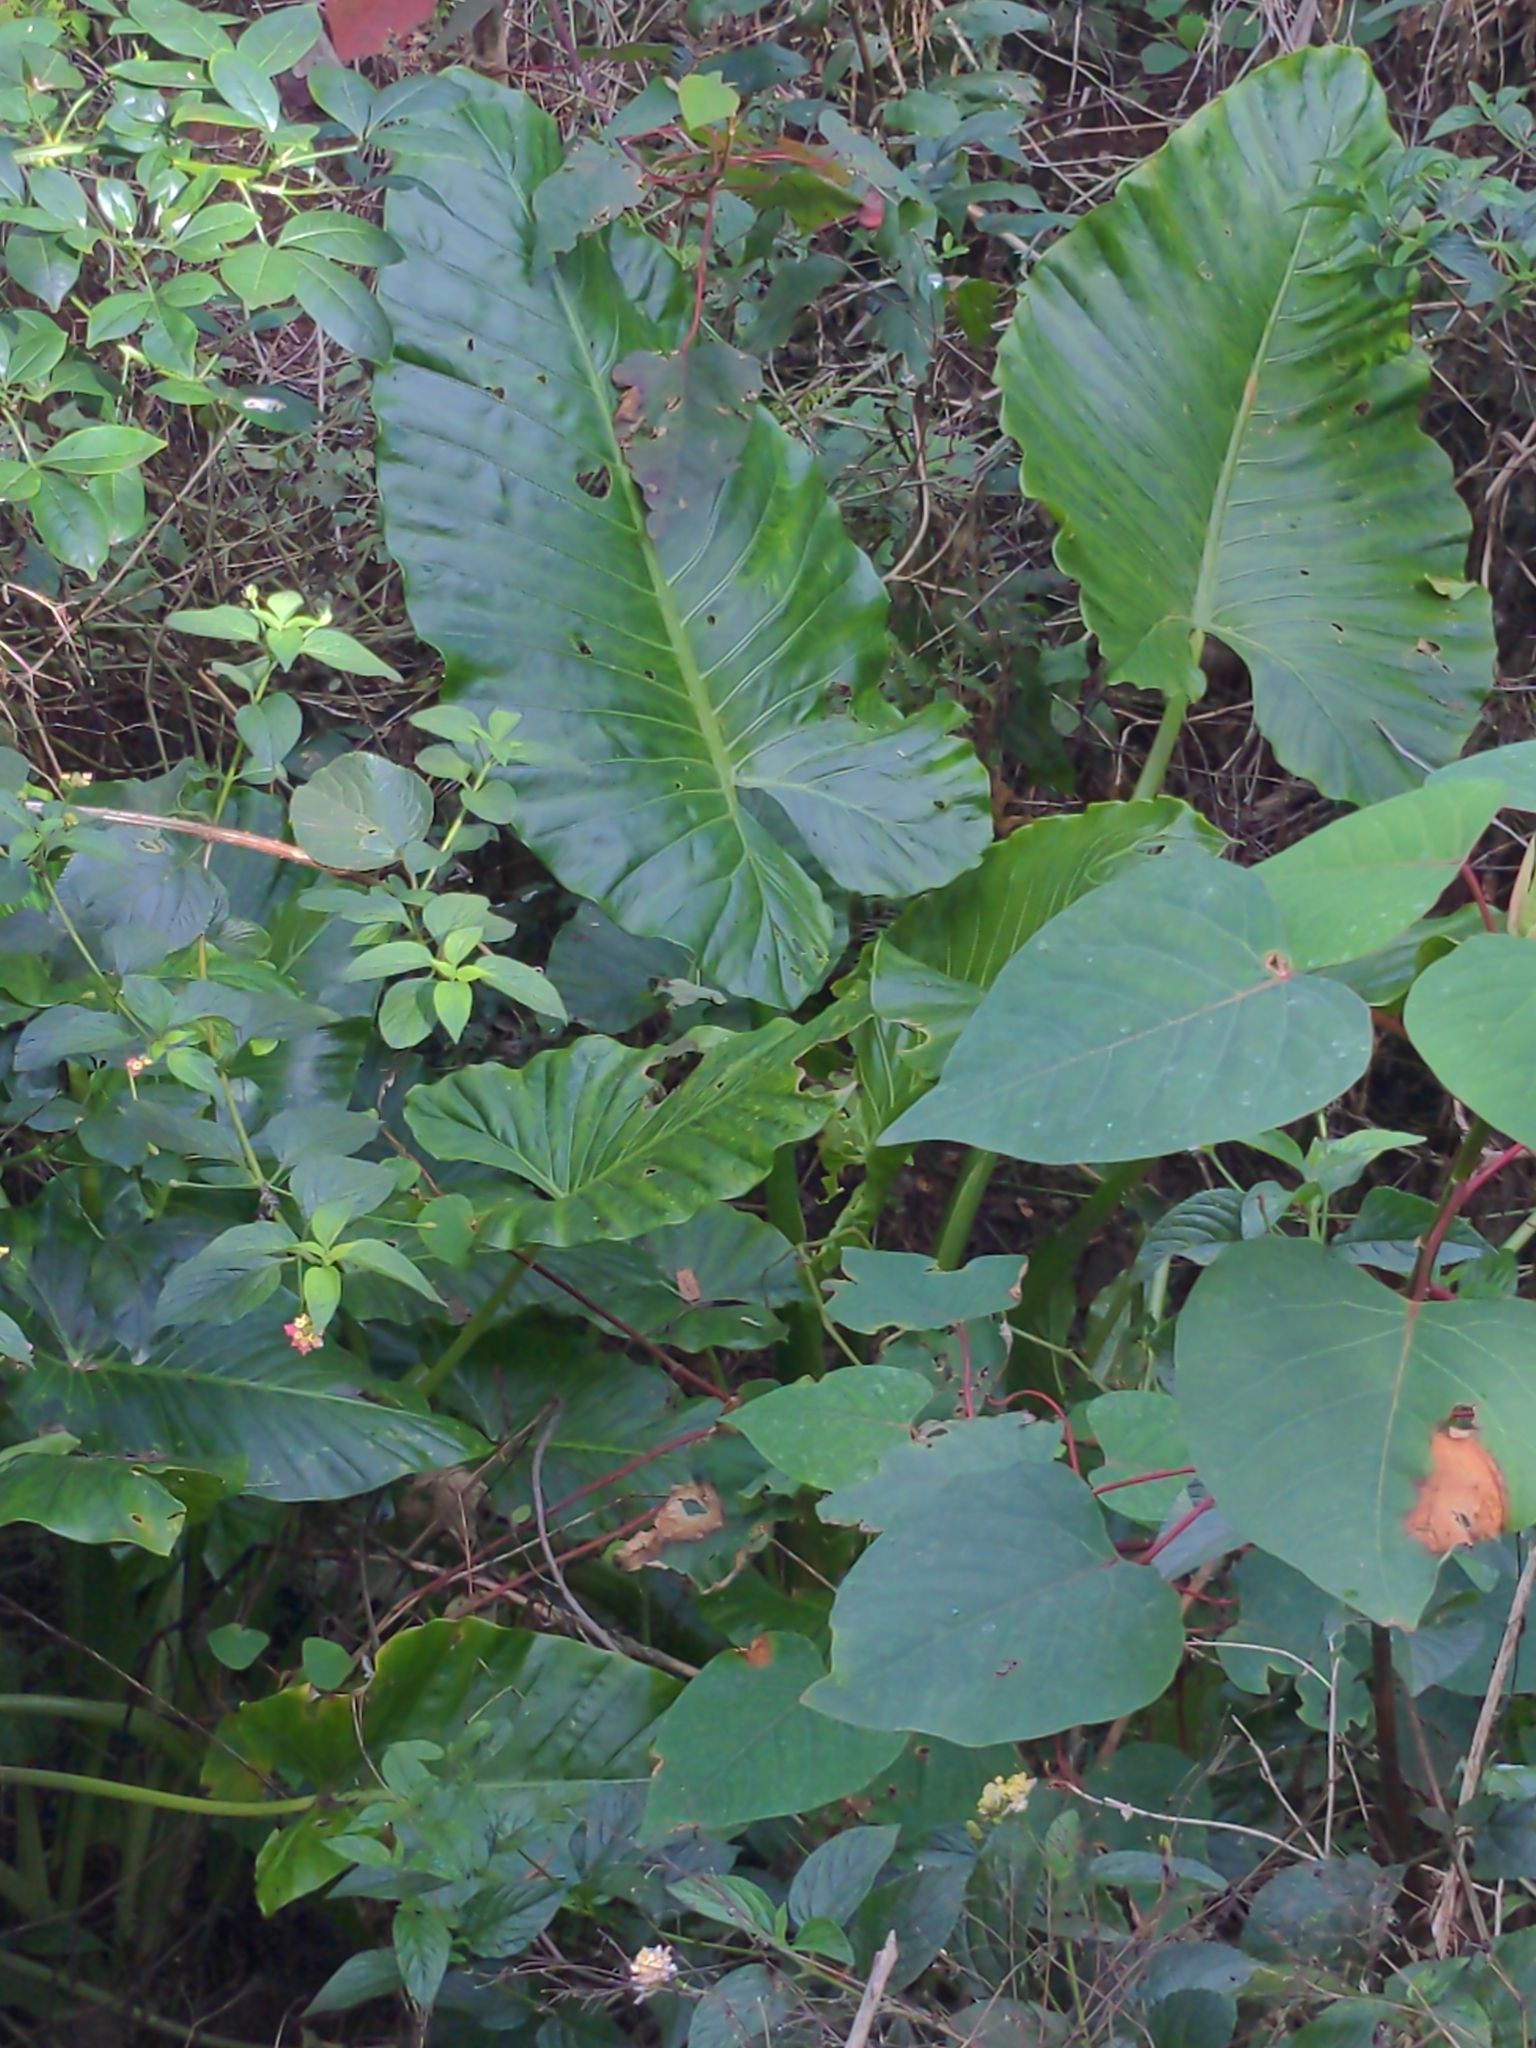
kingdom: Plantae
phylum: Tracheophyta
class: Liliopsida
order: Alismatales
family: Araceae
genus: Alocasia
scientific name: Alocasia brisbanensis
